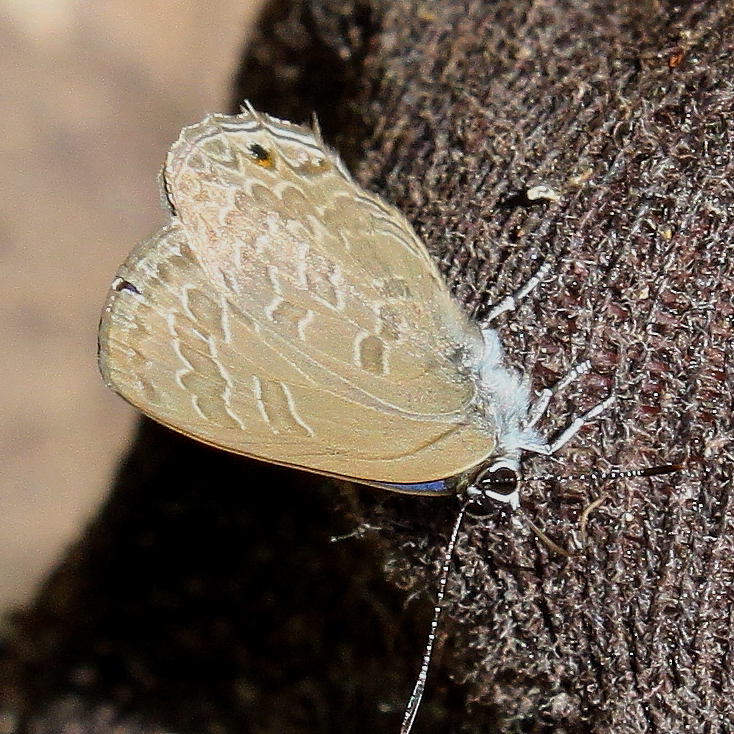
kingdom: Animalia
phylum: Arthropoda
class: Insecta
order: Lepidoptera
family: Lycaenidae
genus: Anthene
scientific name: Anthene emolus
